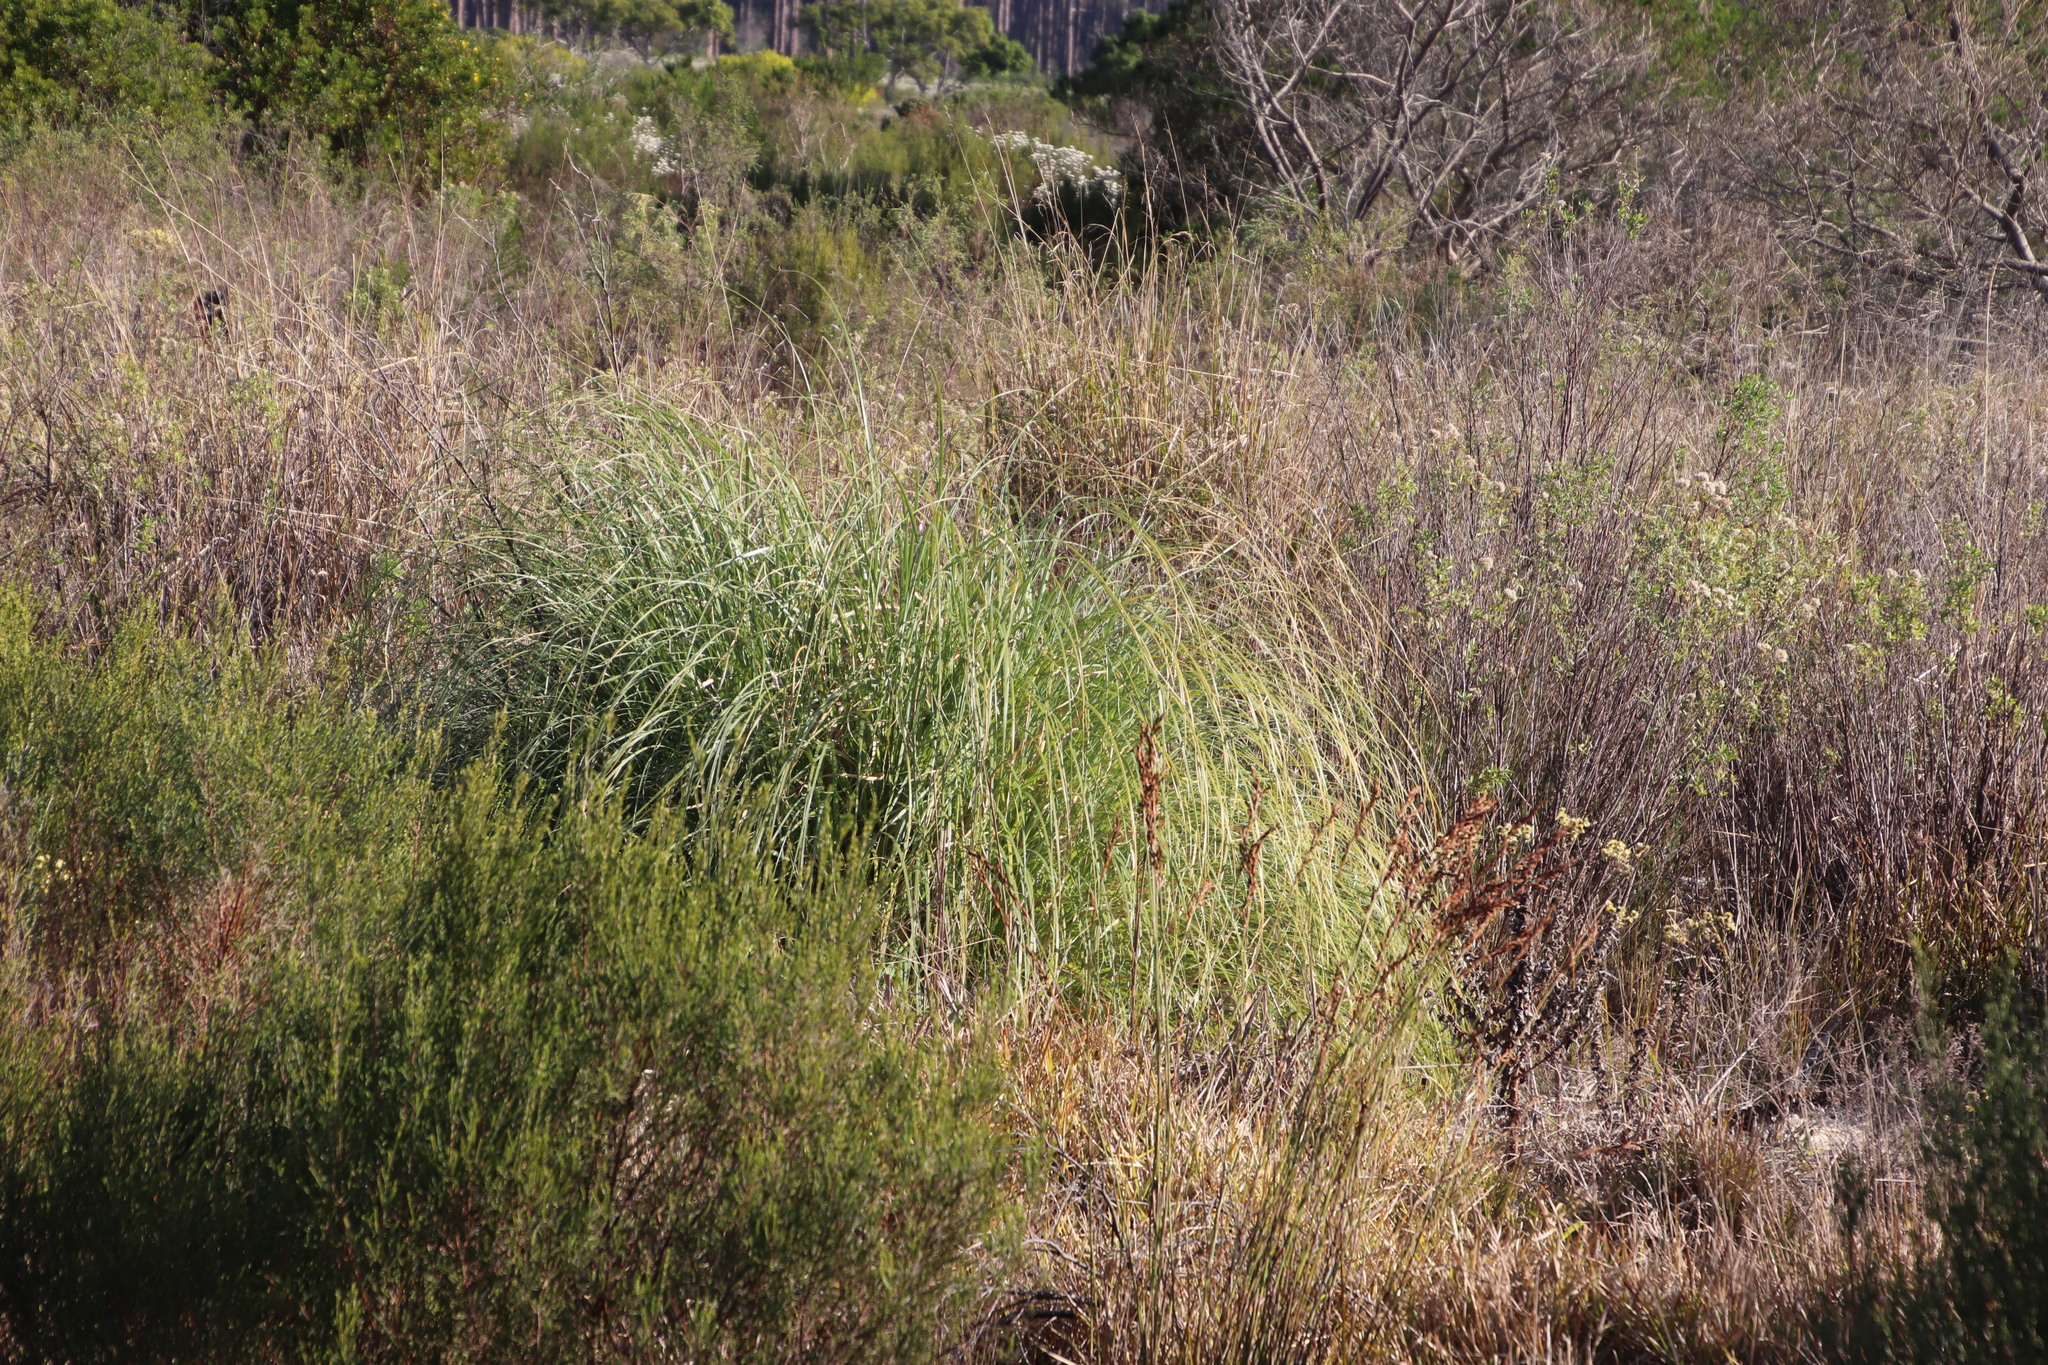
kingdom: Plantae
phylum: Tracheophyta
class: Liliopsida
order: Poales
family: Poaceae
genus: Cortaderia
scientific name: Cortaderia selloana
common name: Uruguayan pampas grass
